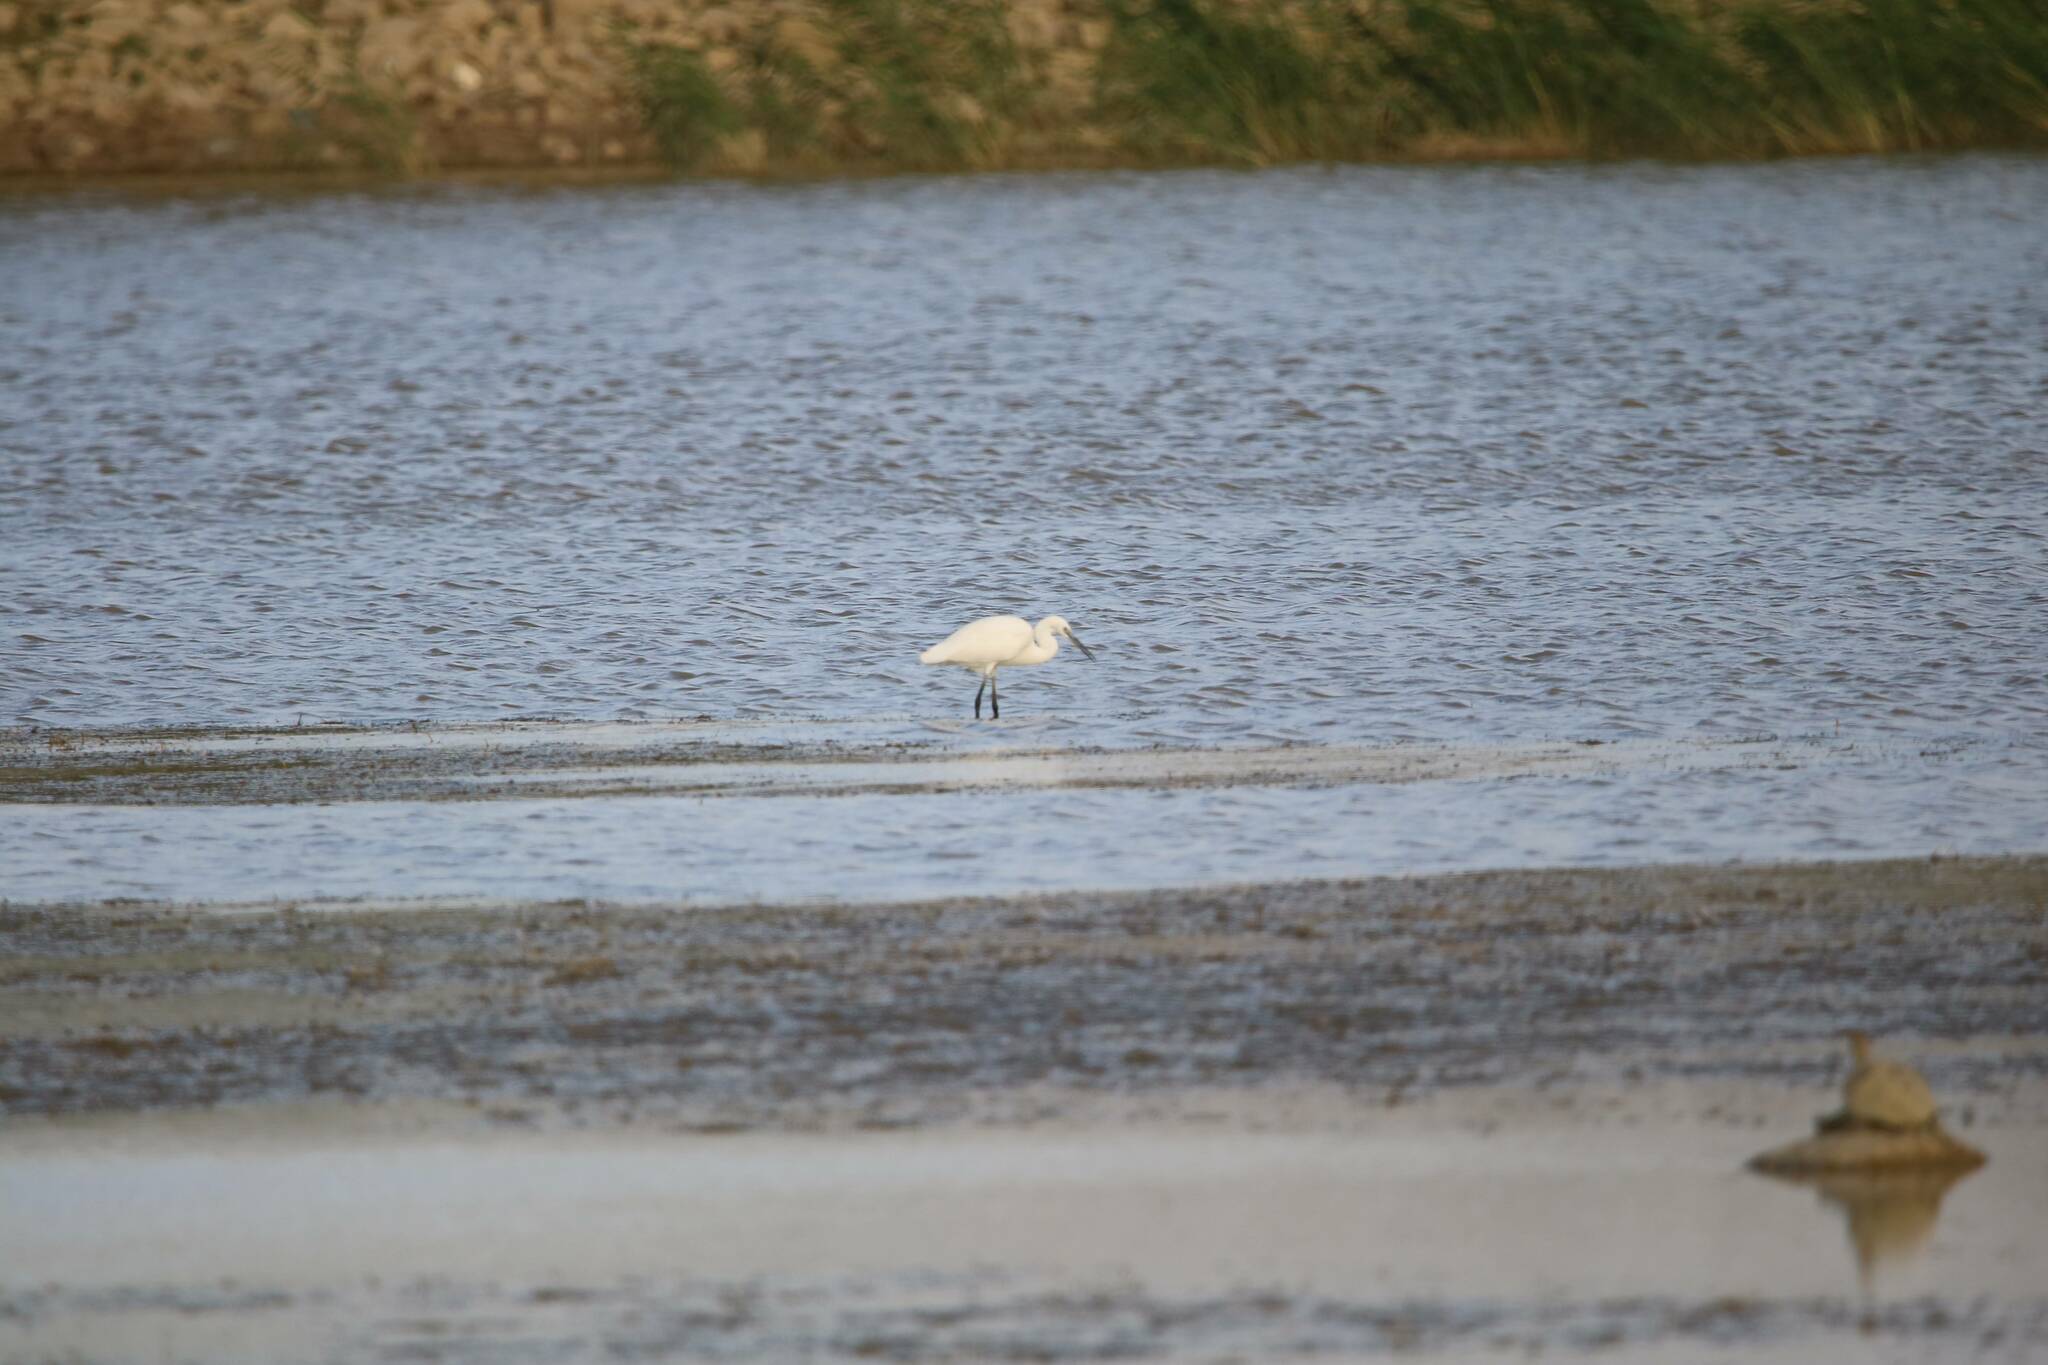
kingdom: Animalia
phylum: Chordata
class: Aves
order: Pelecaniformes
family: Ardeidae
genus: Egretta
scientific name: Egretta garzetta
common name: Little egret
